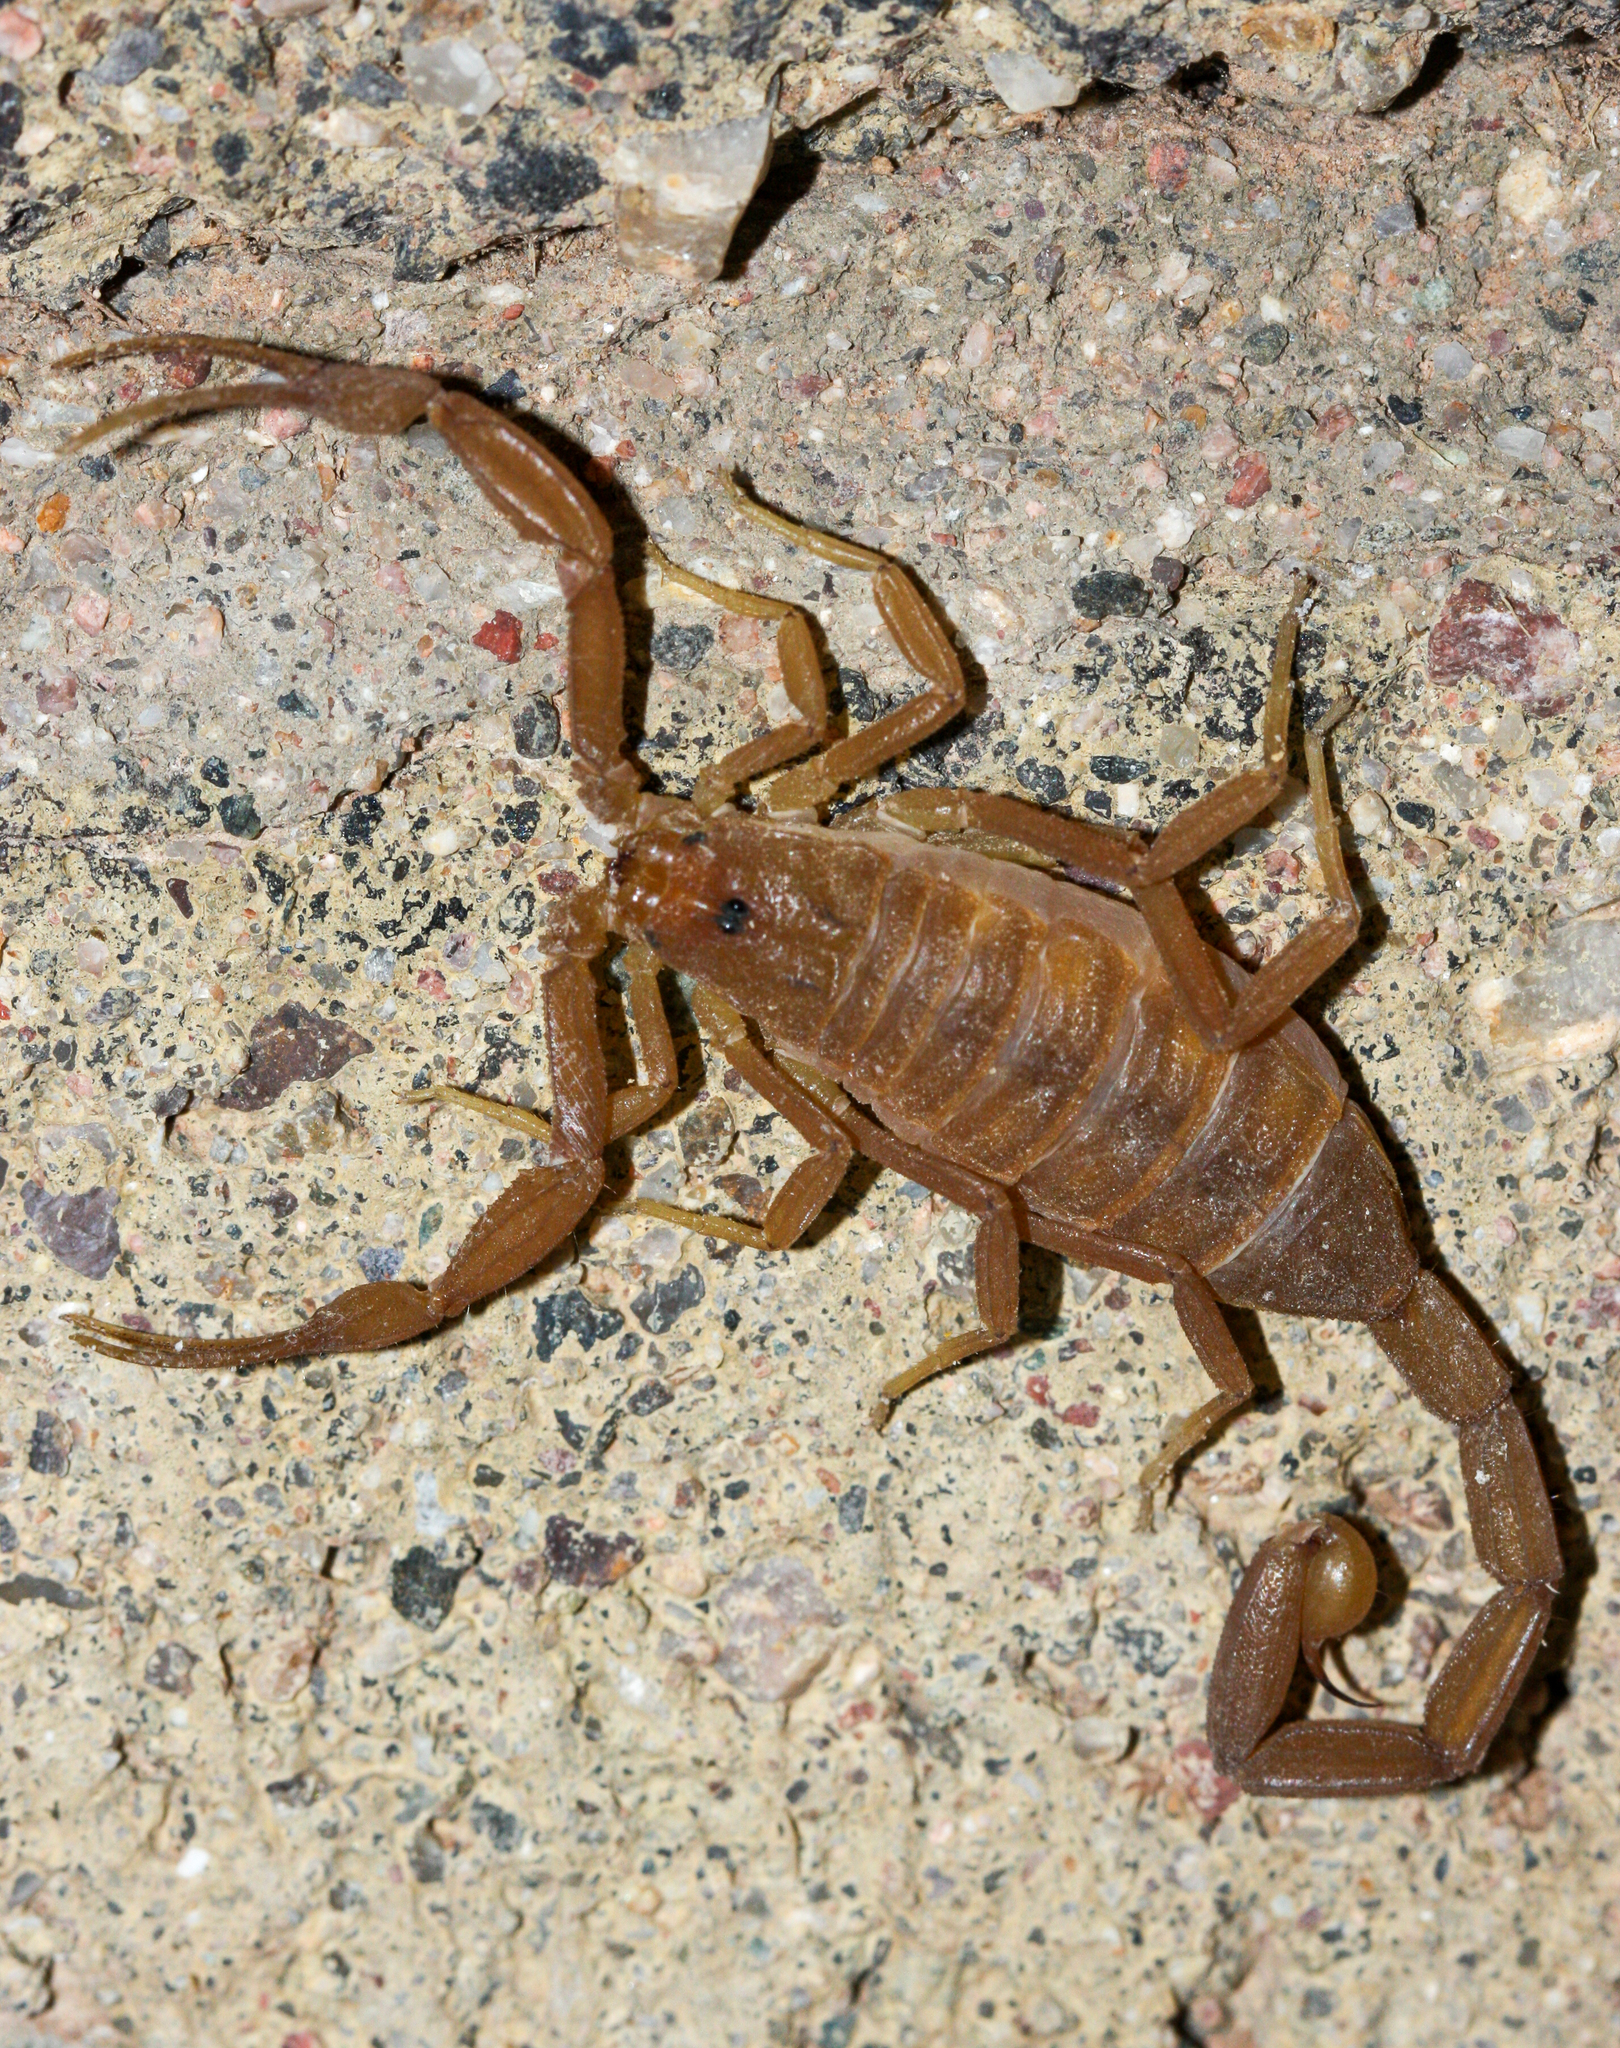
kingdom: Animalia
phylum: Arthropoda
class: Arachnida
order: Scorpiones
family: Buthidae
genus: Centruroides
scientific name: Centruroides sculpturatus
